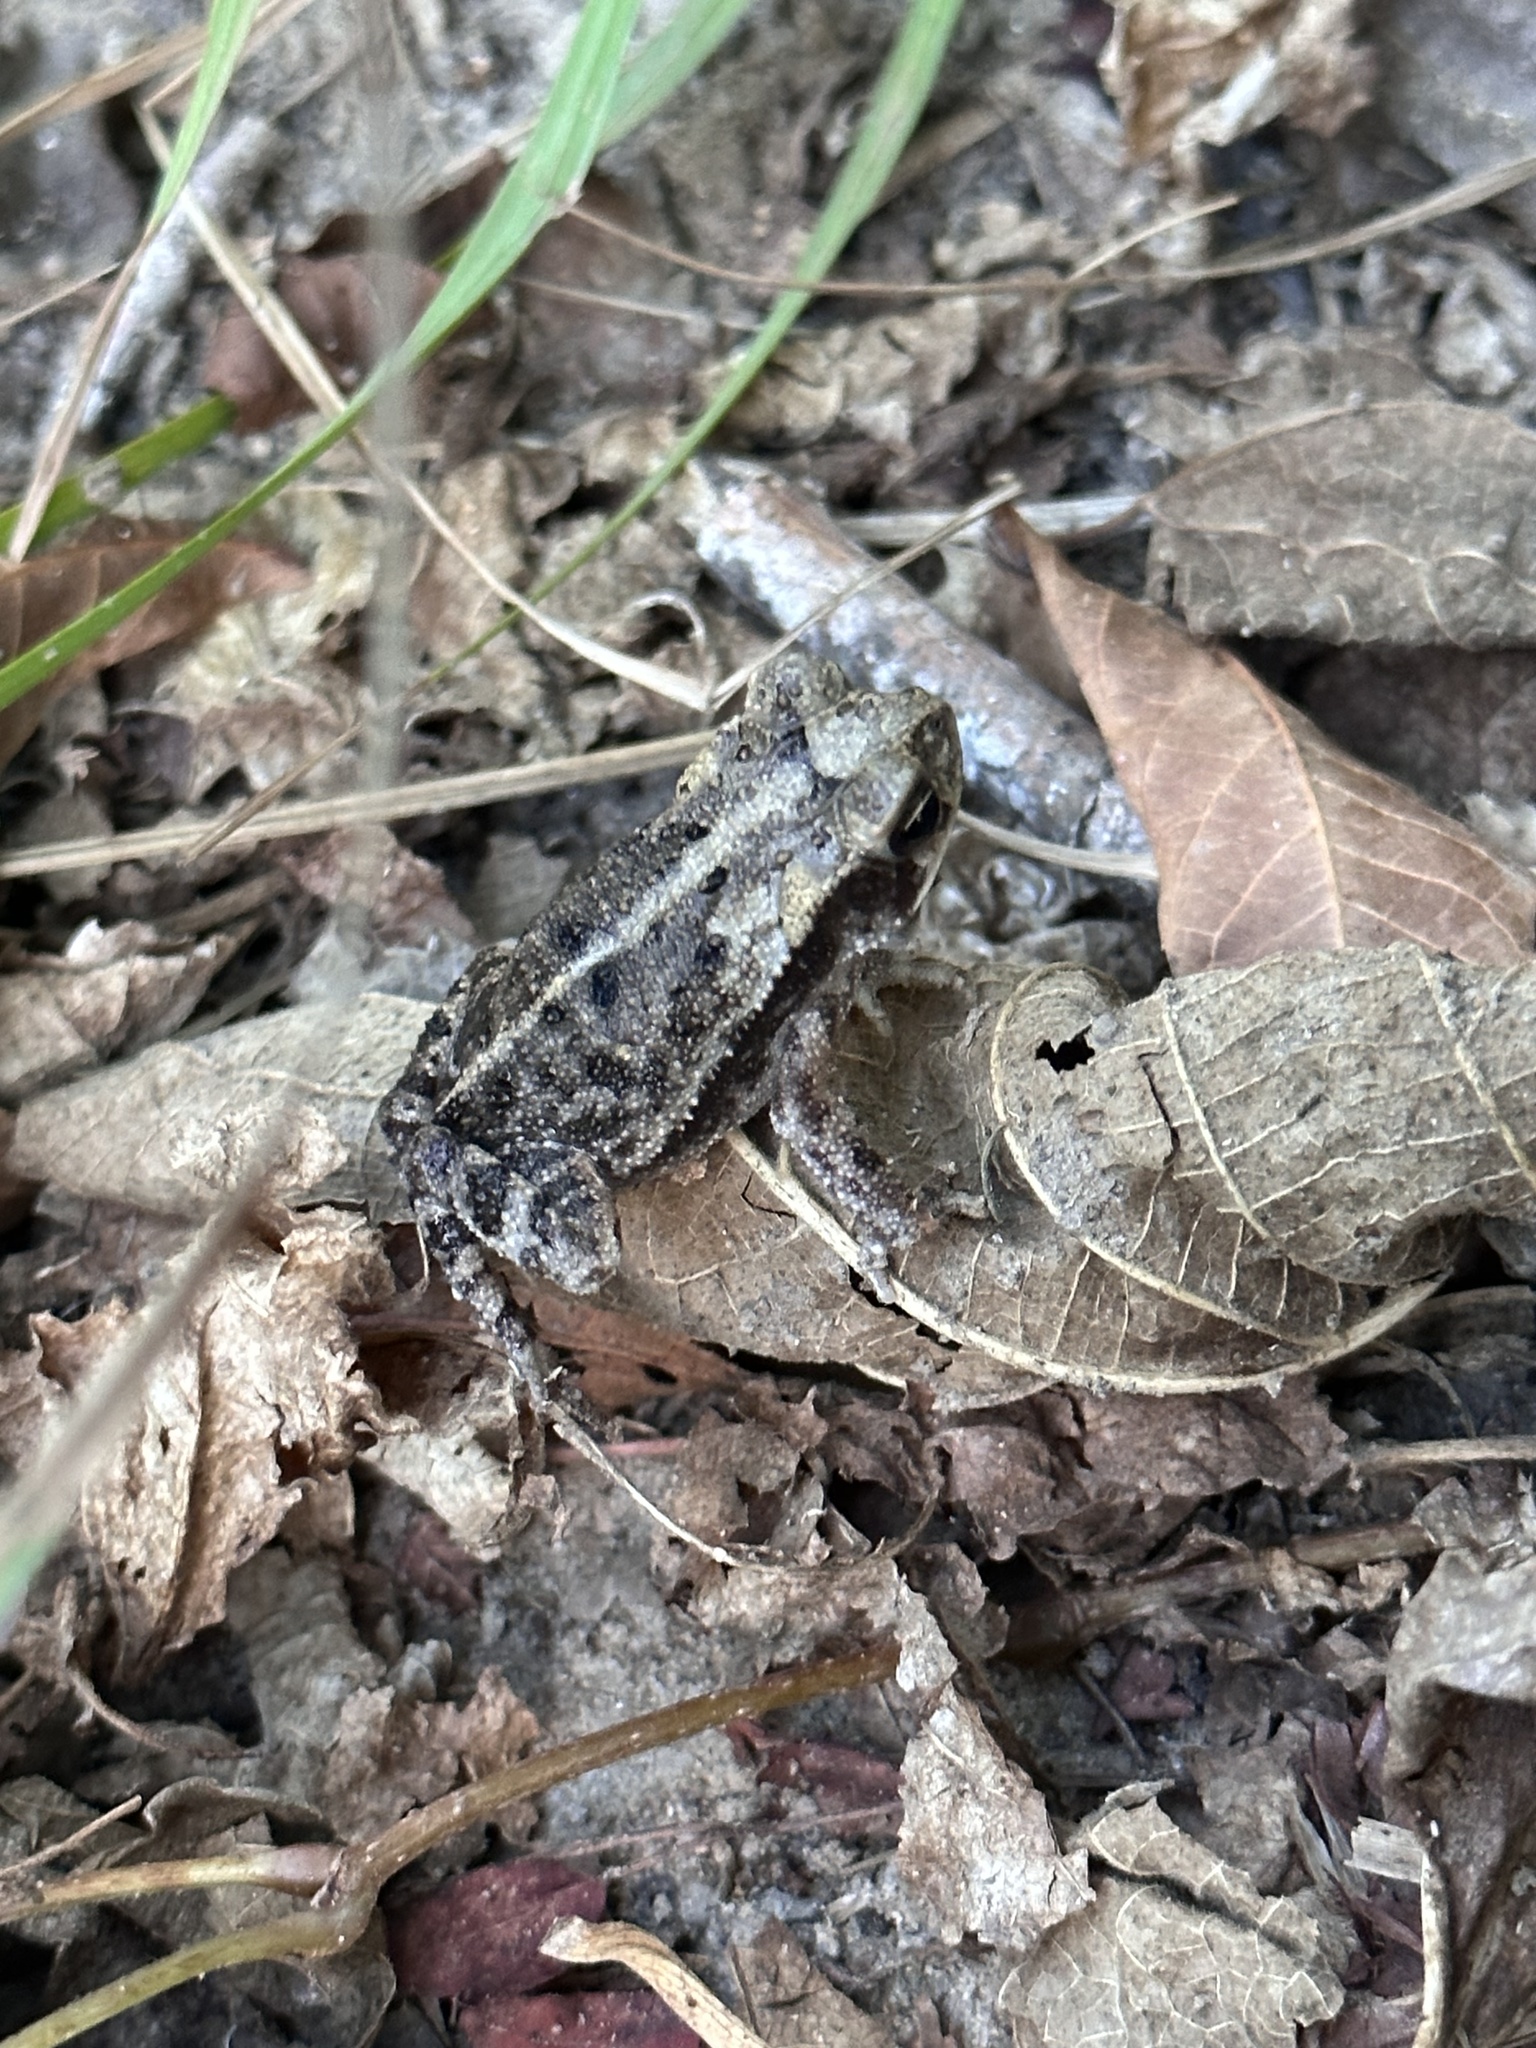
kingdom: Animalia
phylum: Chordata
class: Amphibia
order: Anura
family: Bufonidae
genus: Incilius
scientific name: Incilius nebulifer
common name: Gulf coast toad
